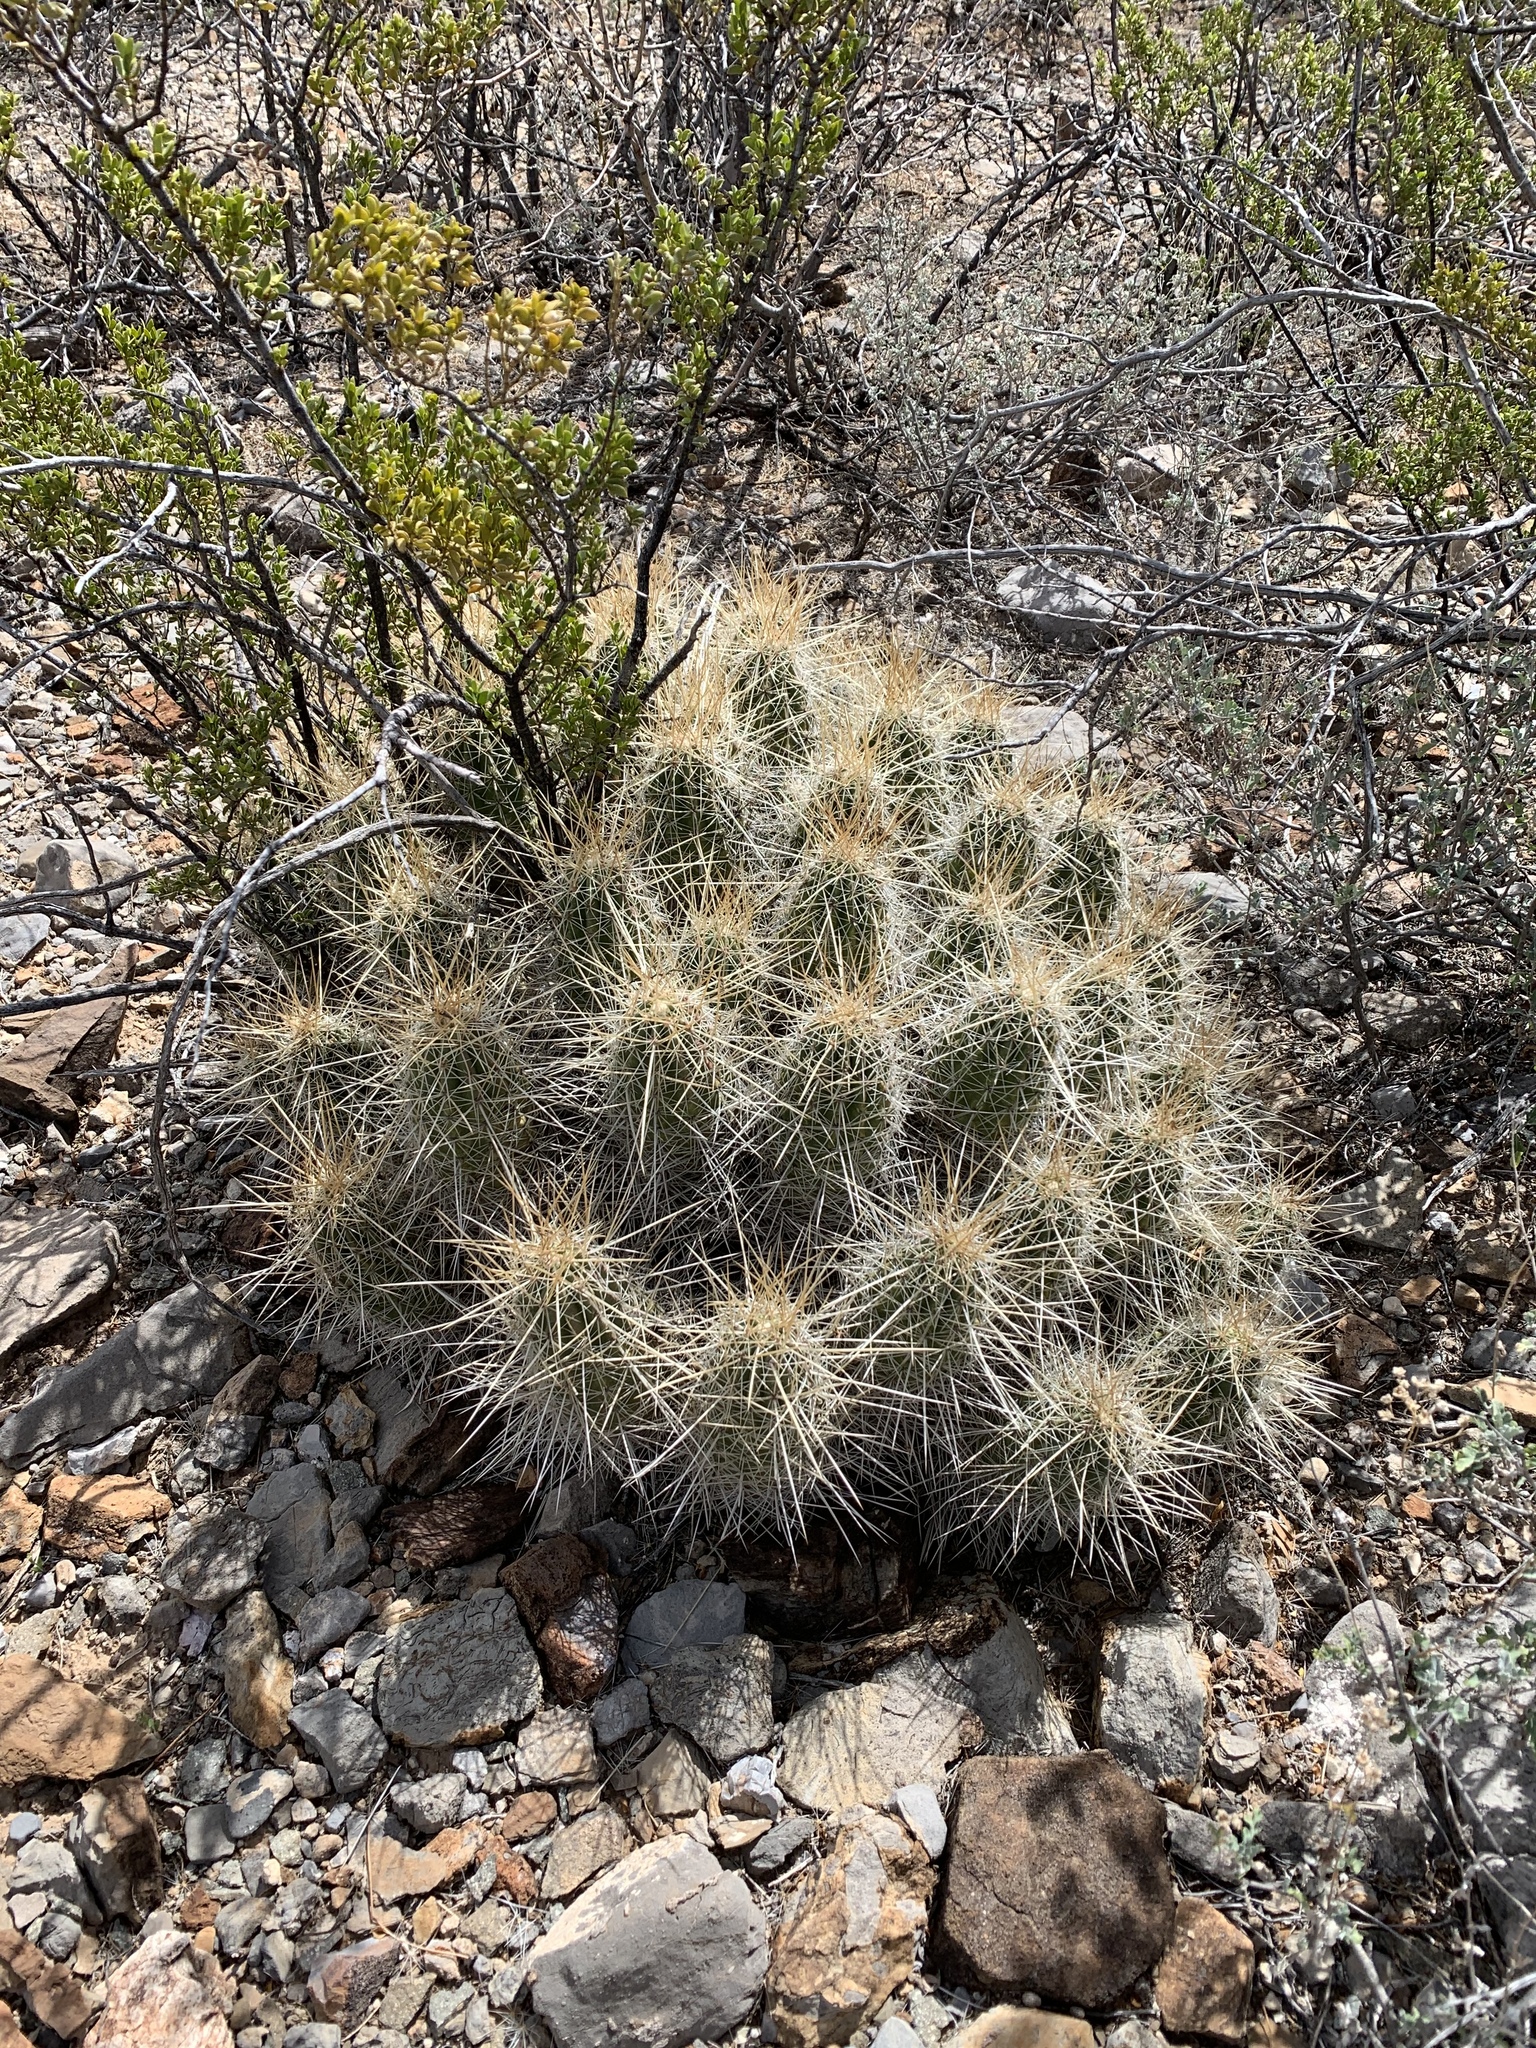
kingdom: Plantae
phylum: Tracheophyta
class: Magnoliopsida
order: Caryophyllales
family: Cactaceae
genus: Echinocereus
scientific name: Echinocereus stramineus
